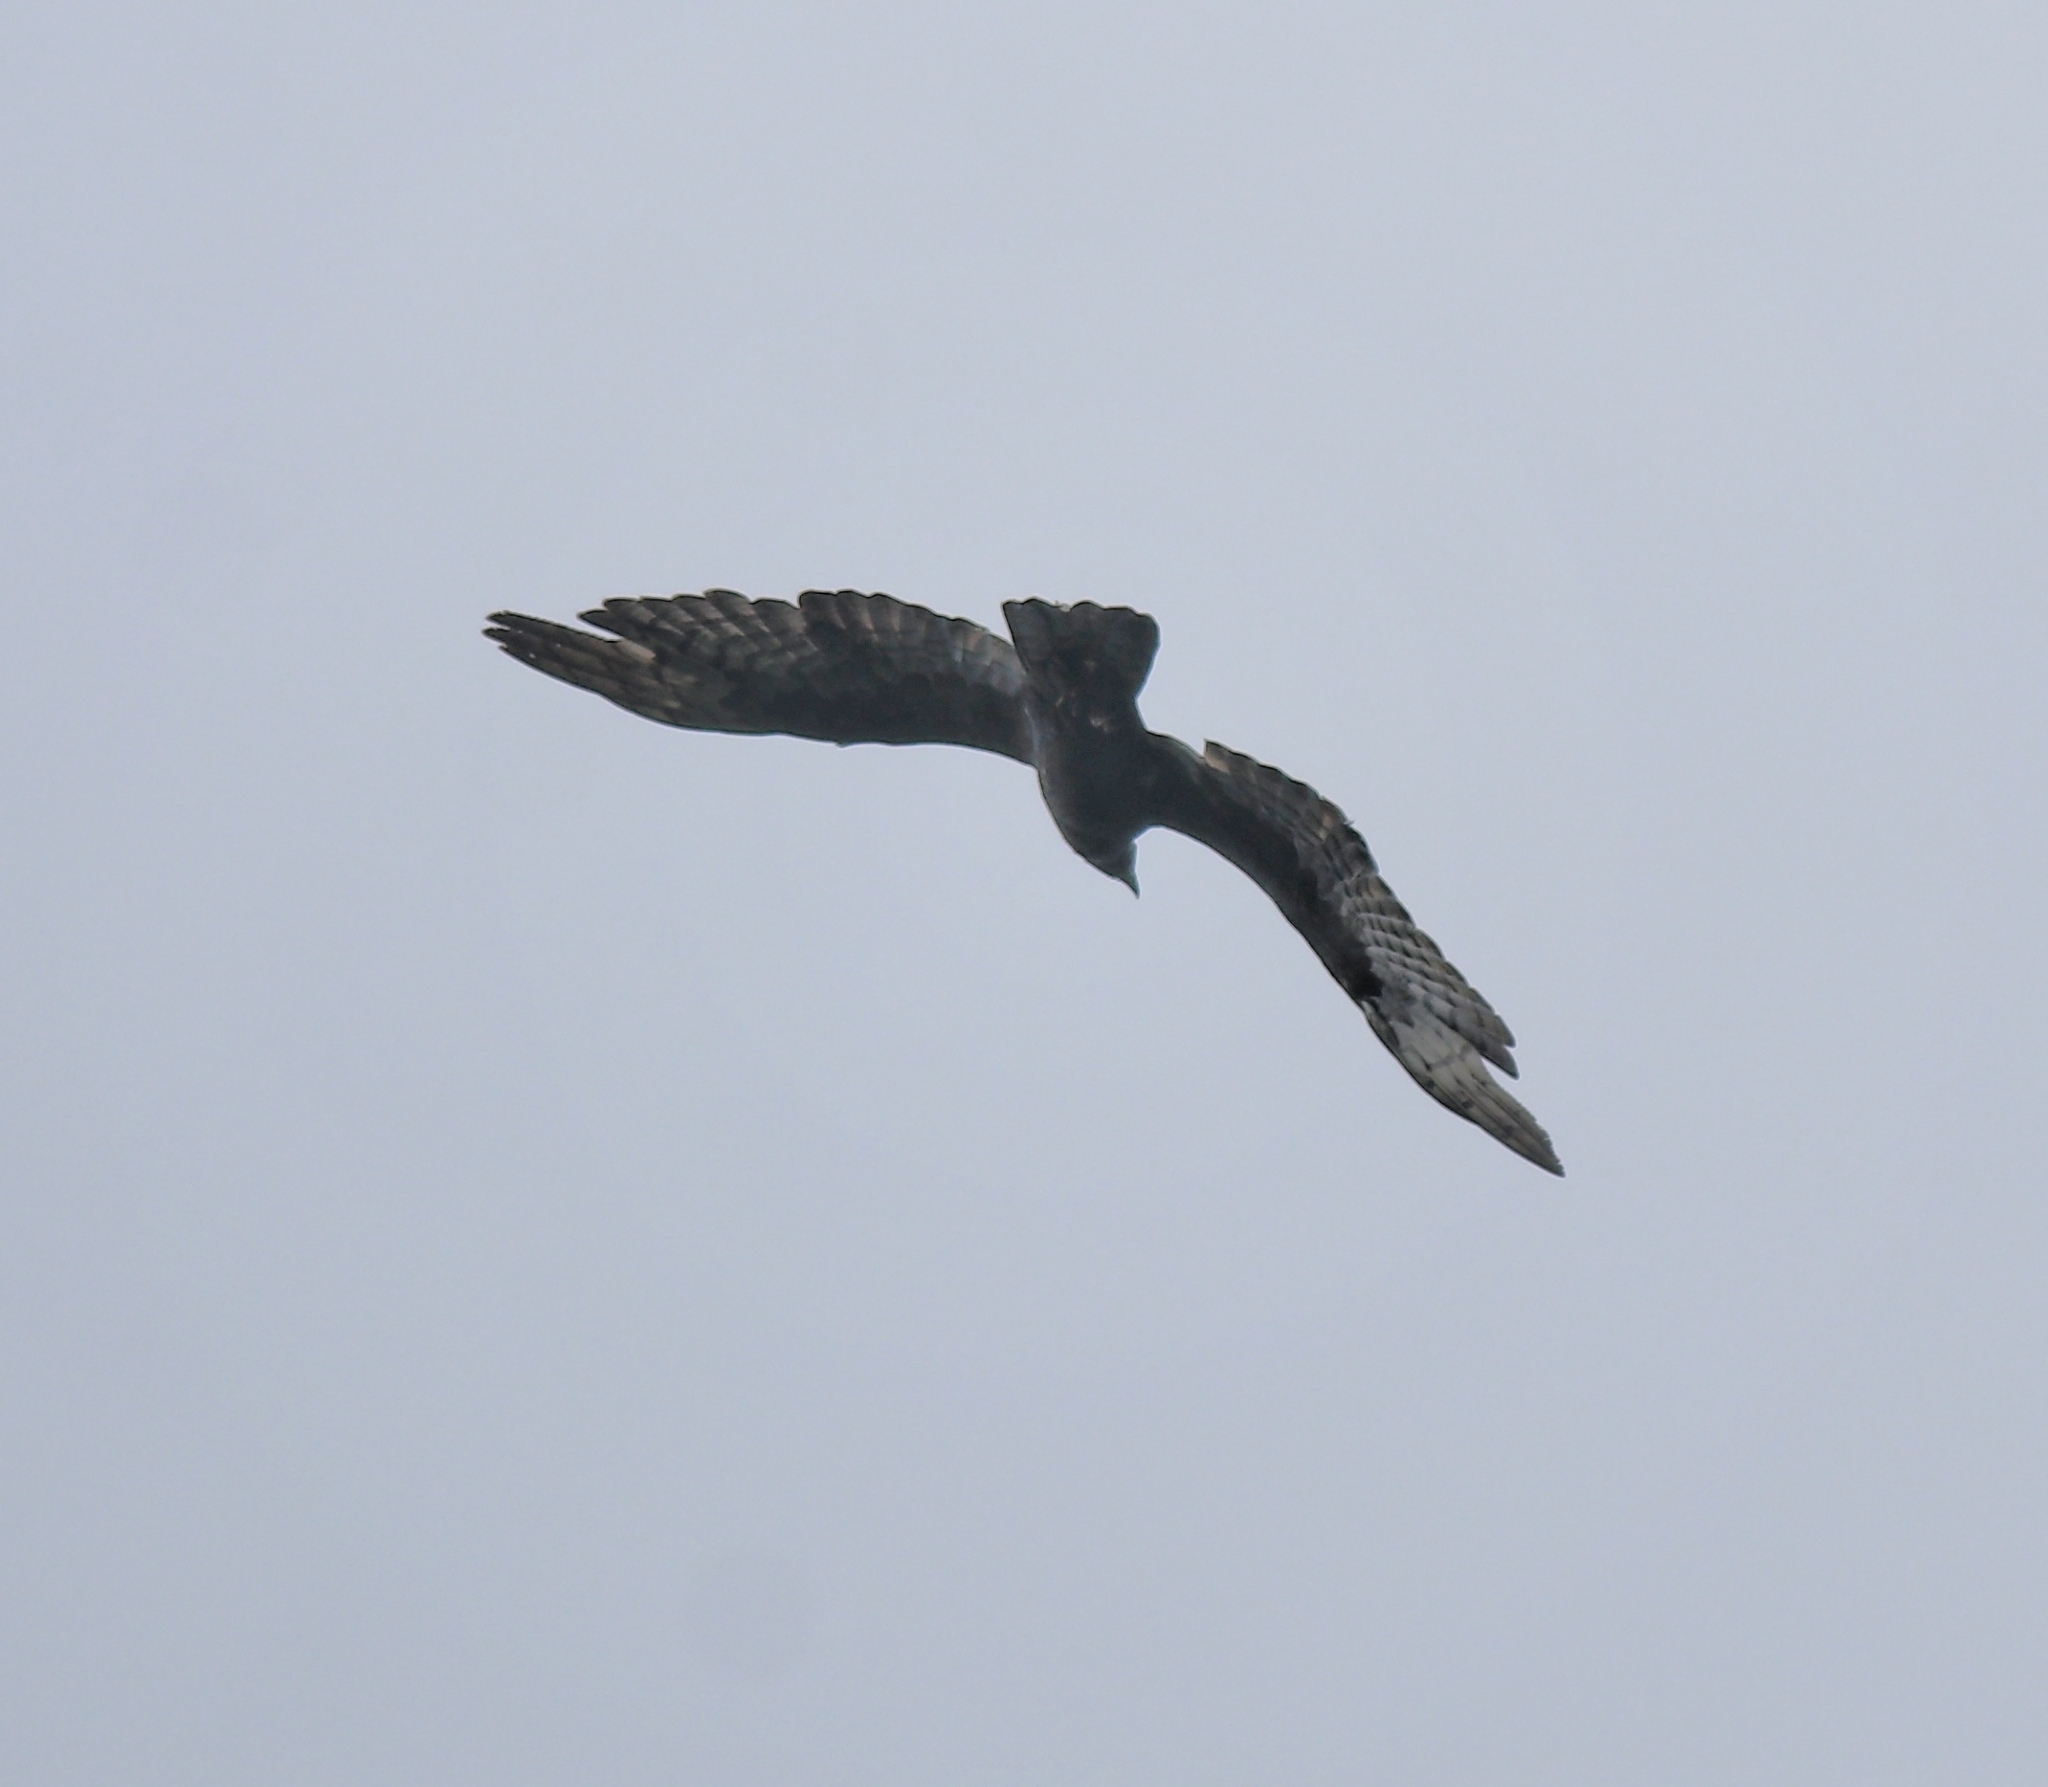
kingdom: Animalia
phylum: Chordata
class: Aves
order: Accipitriformes
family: Accipitridae
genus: Pernis
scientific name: Pernis ptilorhynchus
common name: Crested honey buzzard
